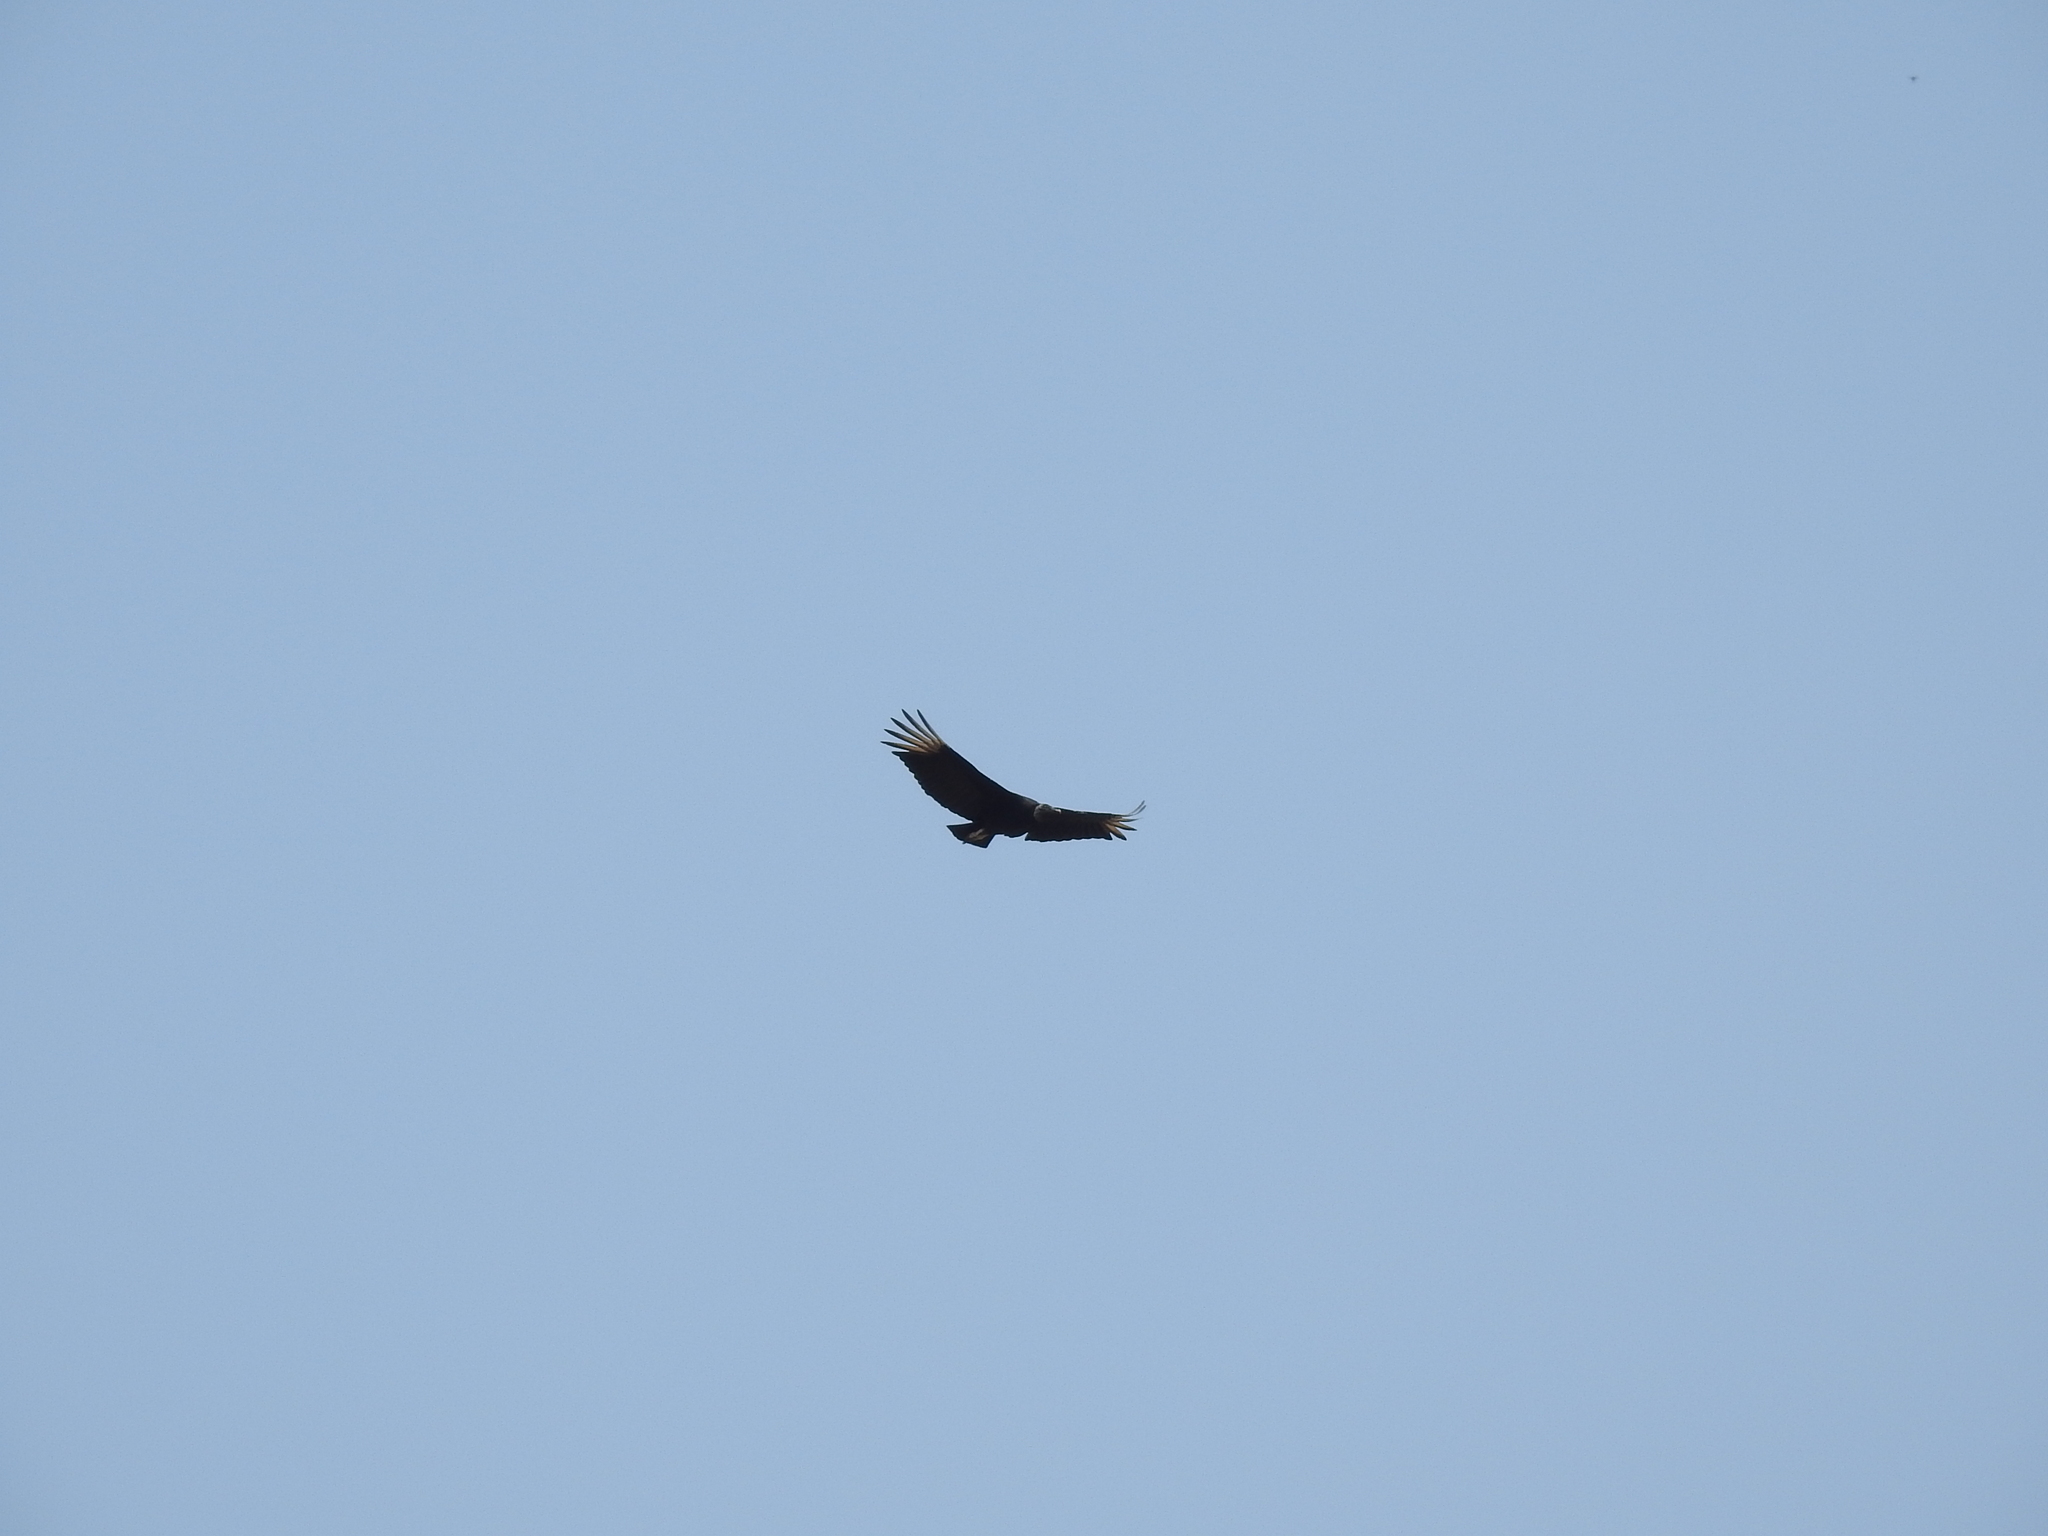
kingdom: Animalia
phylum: Chordata
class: Aves
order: Accipitriformes
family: Cathartidae
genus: Coragyps
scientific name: Coragyps atratus
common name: Black vulture
